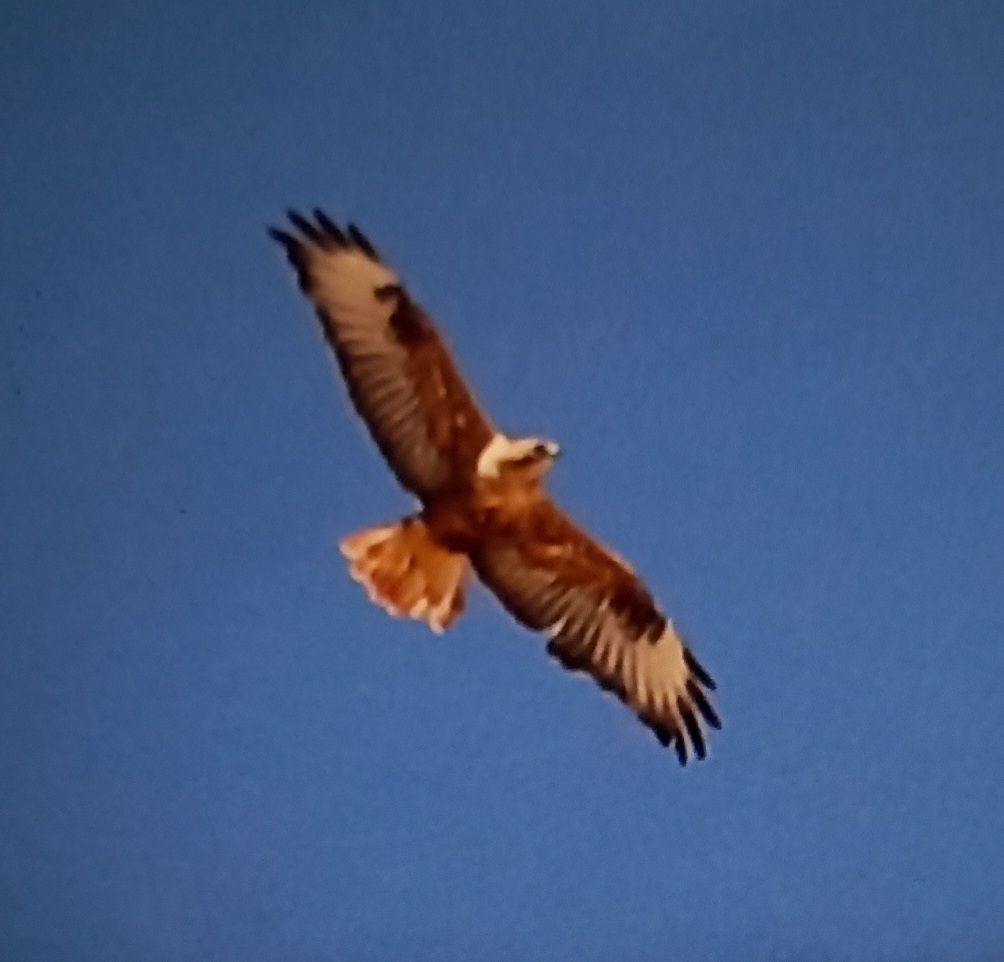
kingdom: Animalia
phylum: Chordata
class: Aves
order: Accipitriformes
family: Accipitridae
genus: Buteo
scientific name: Buteo rufinus
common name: Long-legged buzzard
